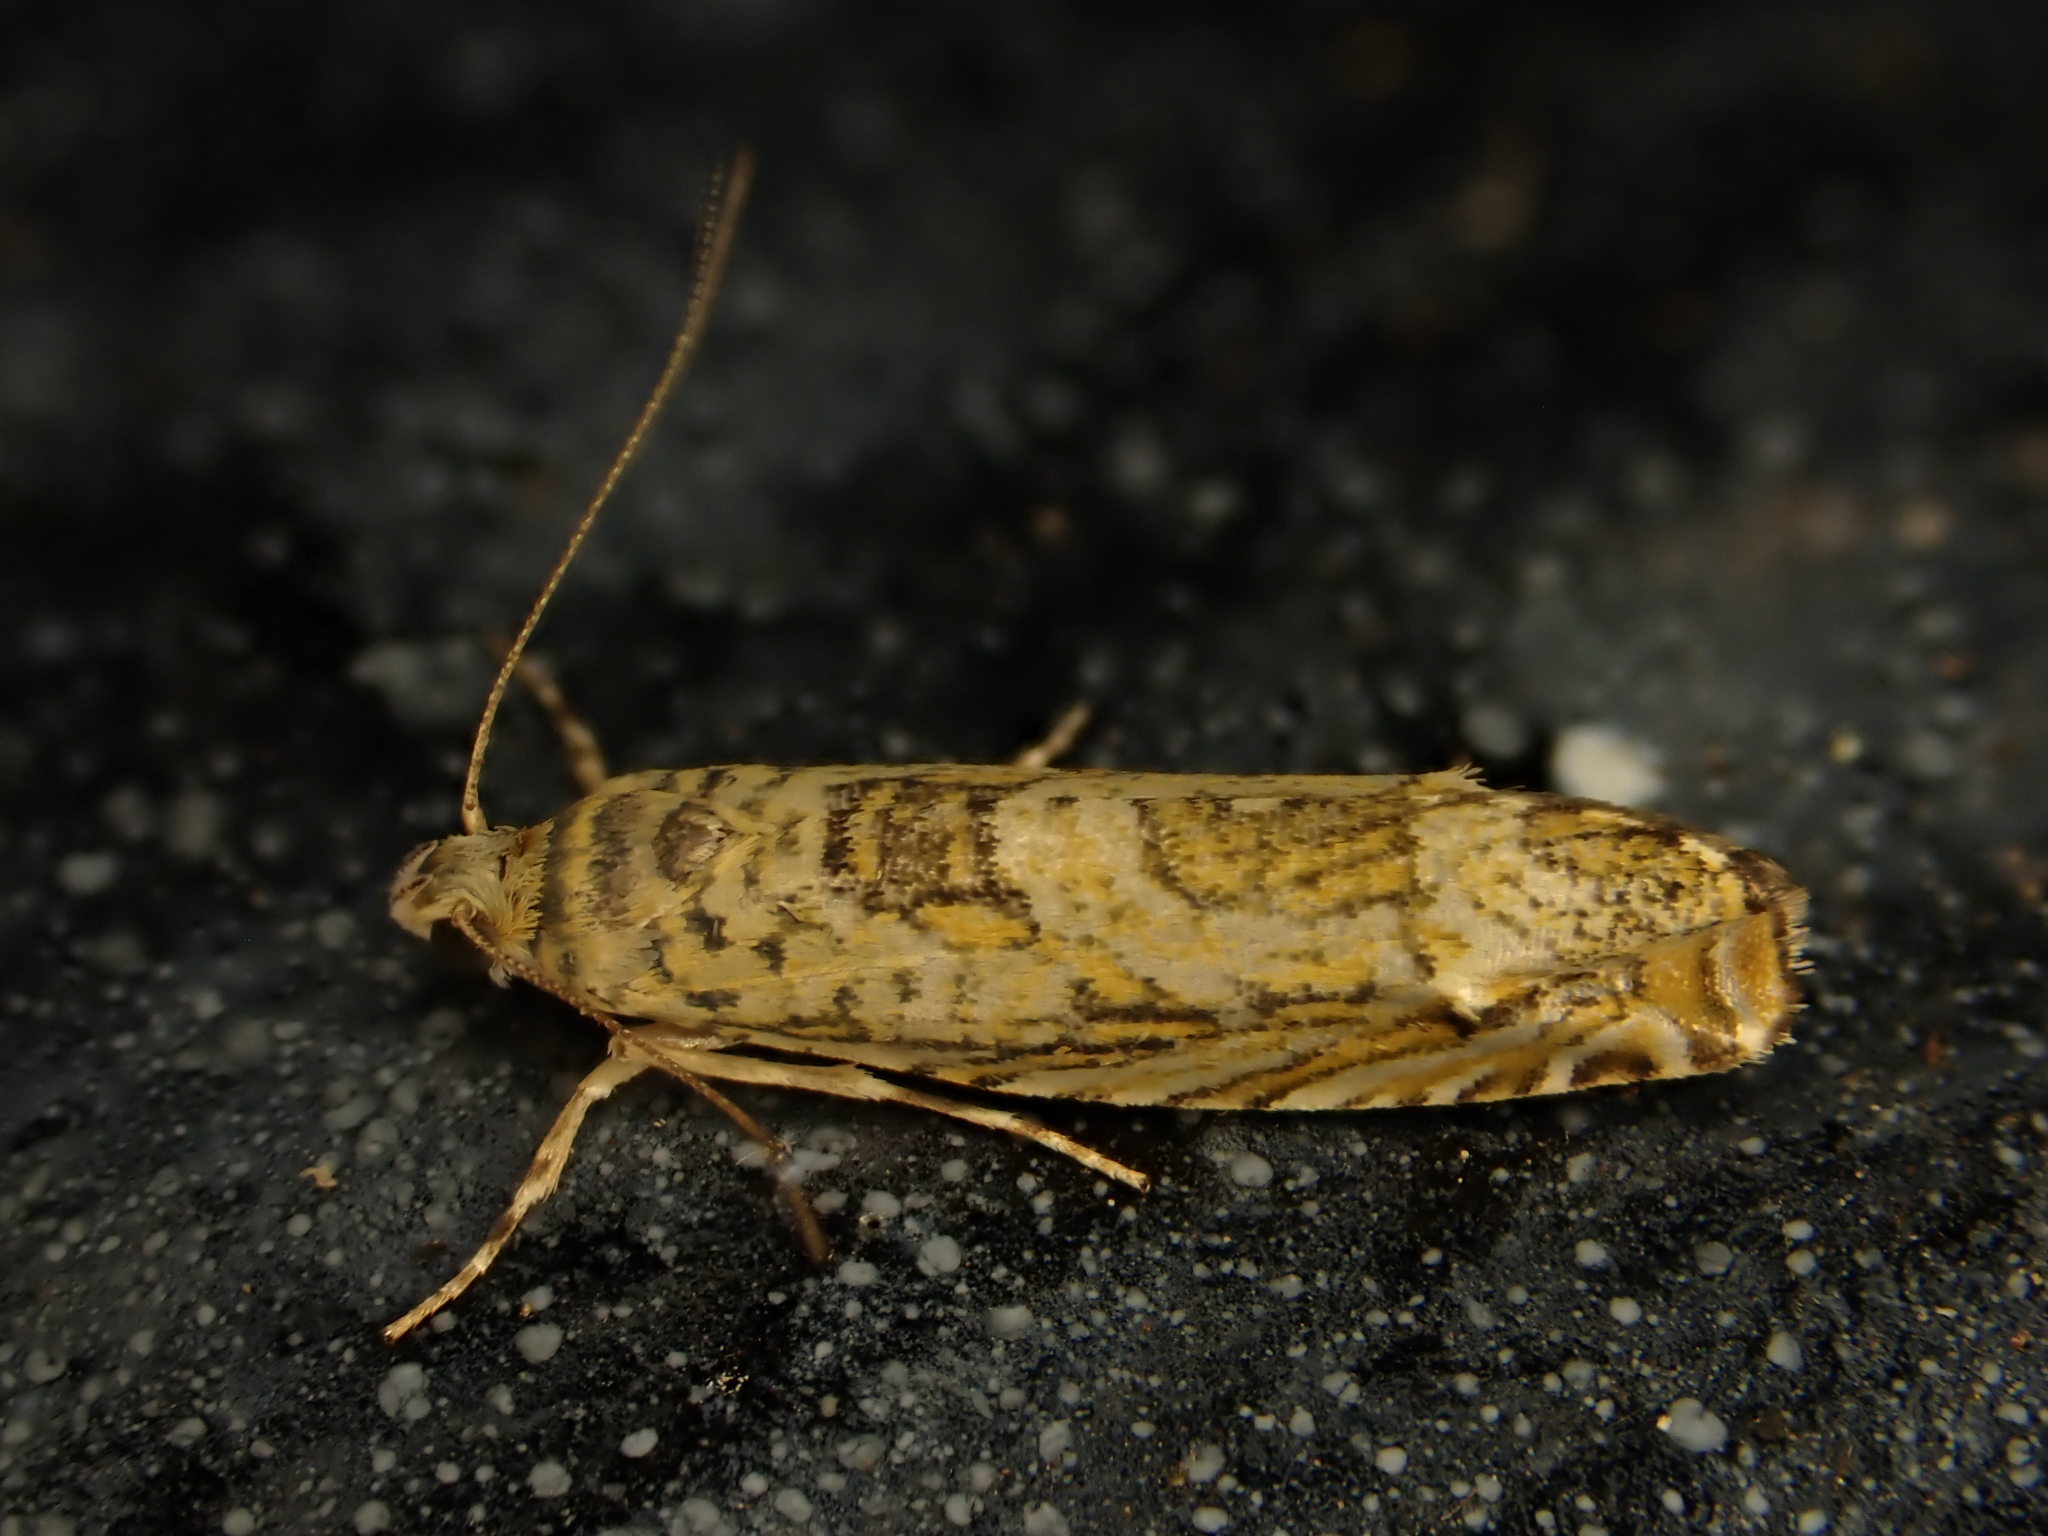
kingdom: Animalia
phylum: Arthropoda
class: Insecta
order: Lepidoptera
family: Plutellidae
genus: Doxophyrtis
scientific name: Doxophyrtis hydrocosma
